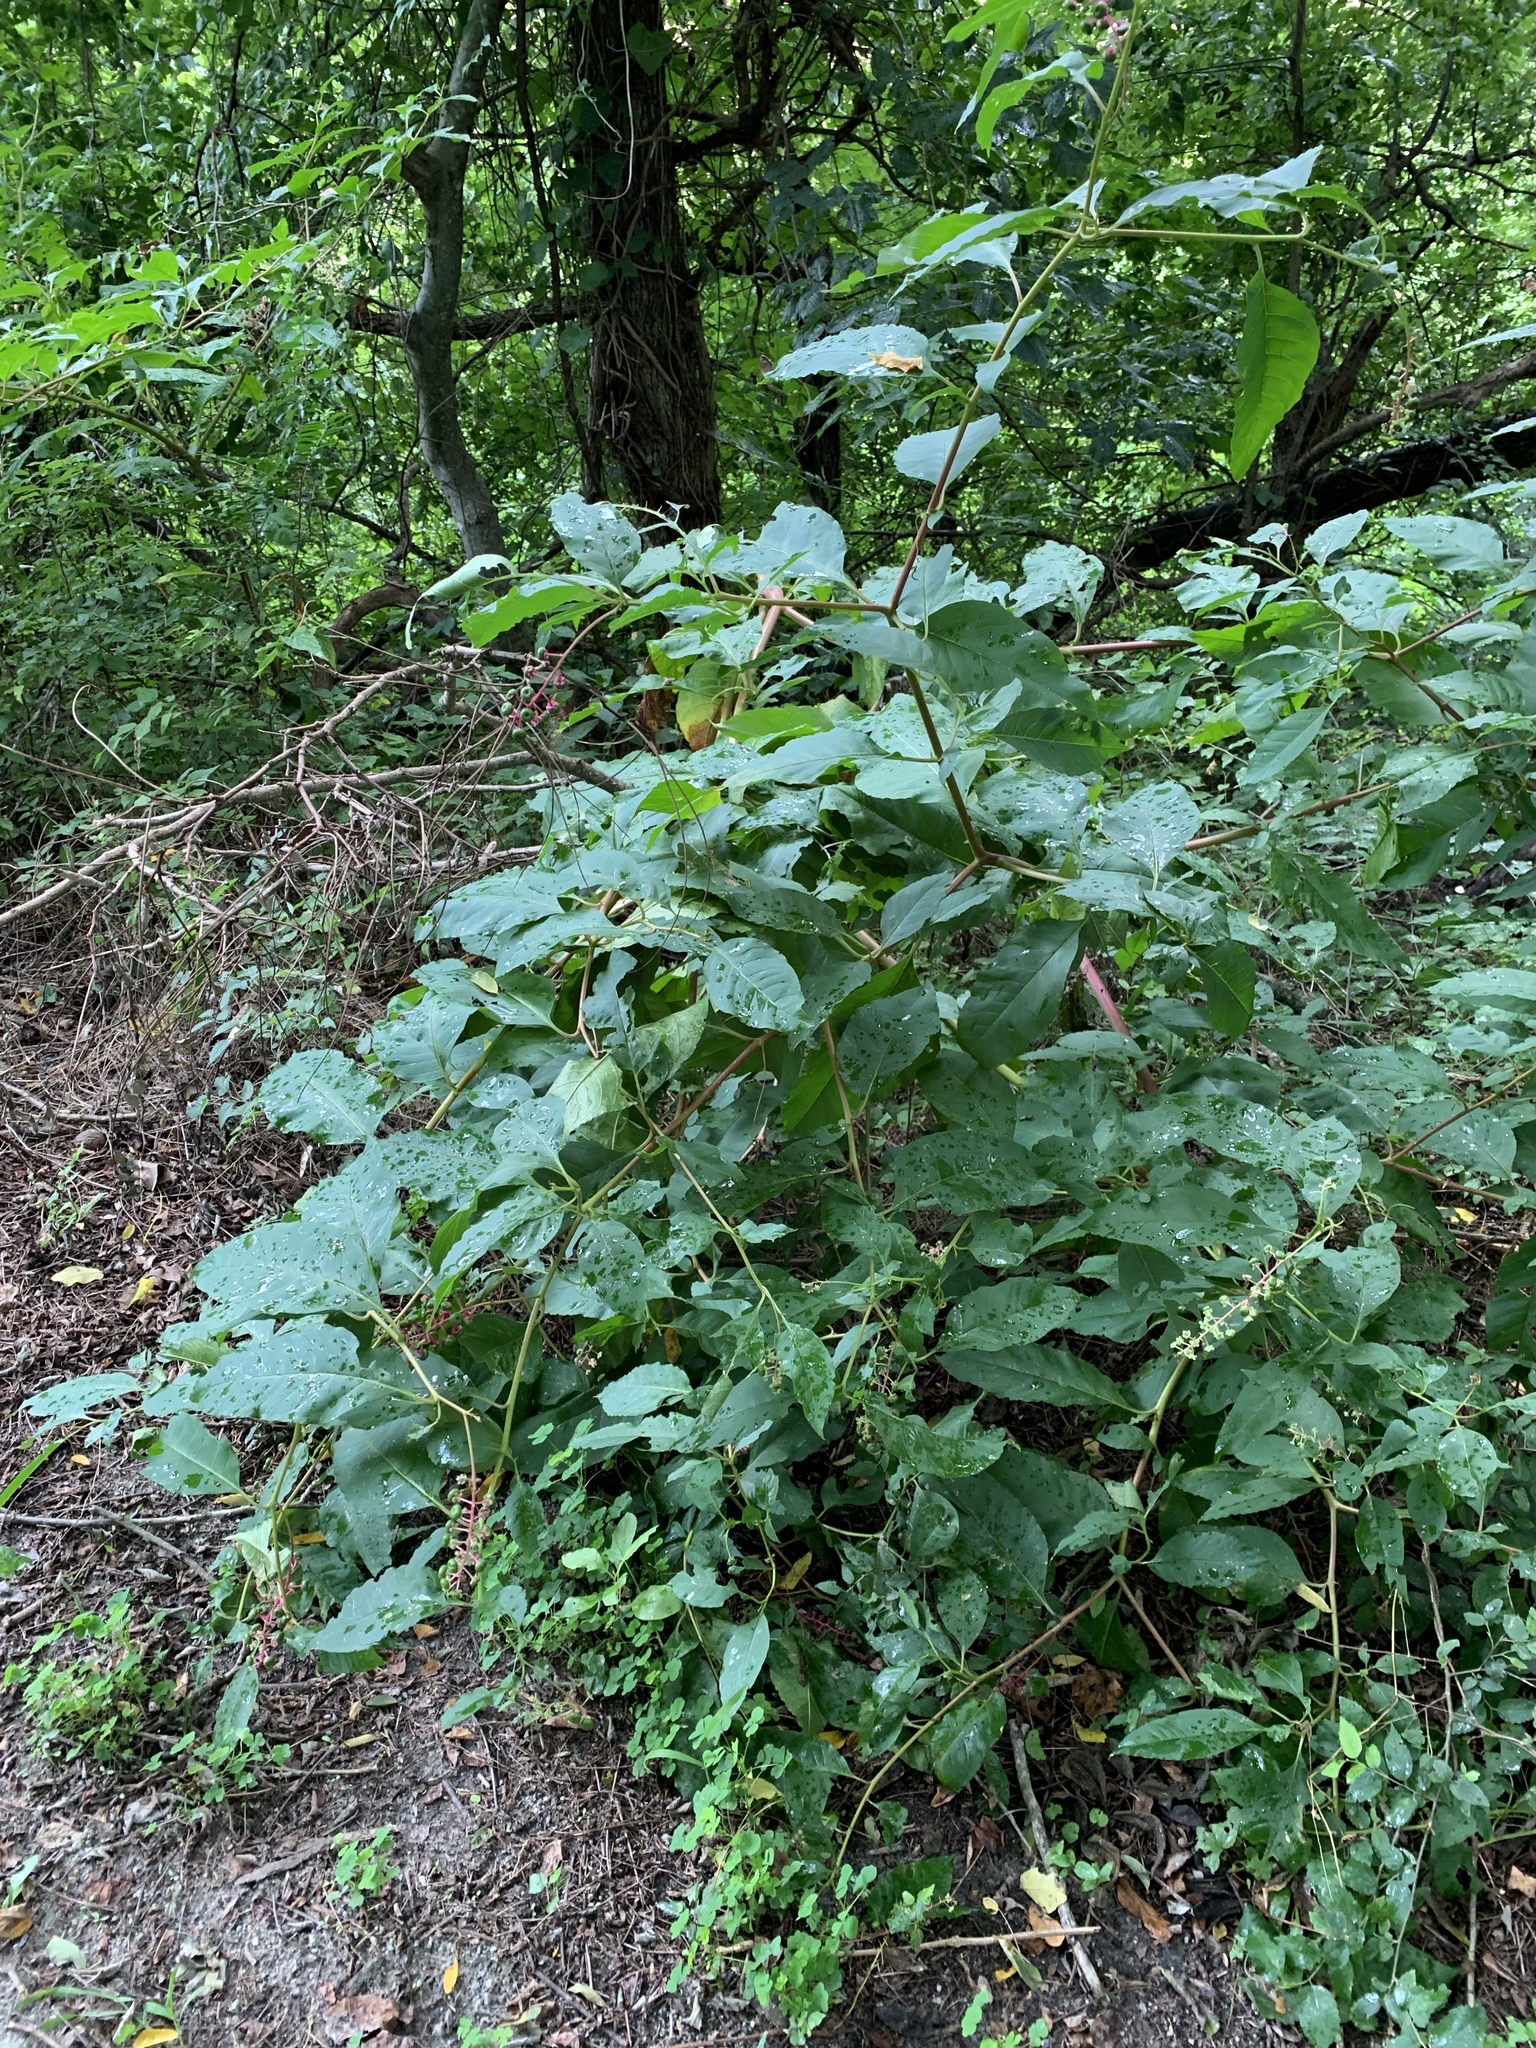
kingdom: Plantae
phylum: Tracheophyta
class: Magnoliopsida
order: Caryophyllales
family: Phytolaccaceae
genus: Phytolacca
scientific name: Phytolacca americana
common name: American pokeweed
